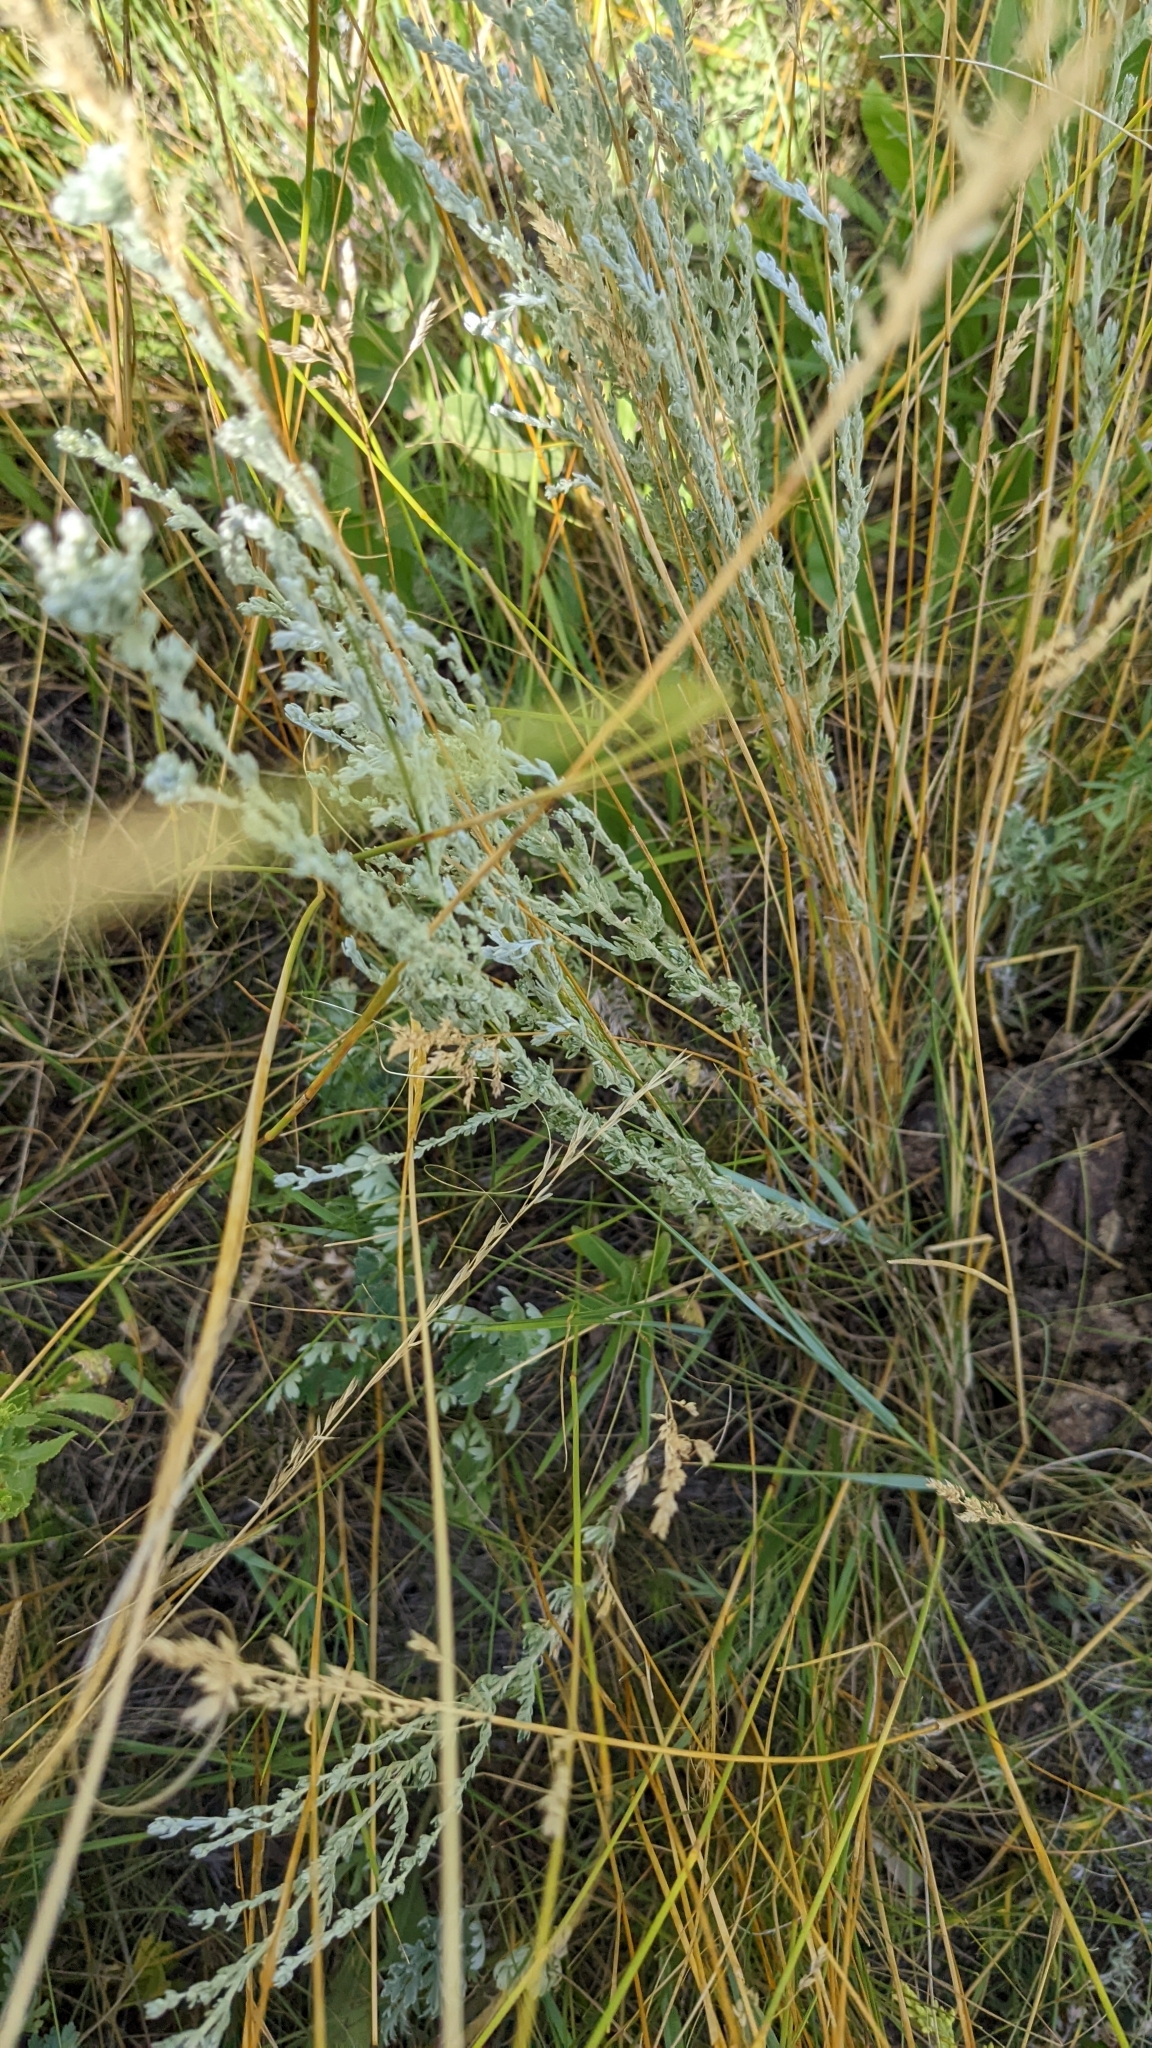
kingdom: Plantae
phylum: Tracheophyta
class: Magnoliopsida
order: Asterales
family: Asteraceae
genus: Artemisia
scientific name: Artemisia frigida
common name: Prairie sagewort
